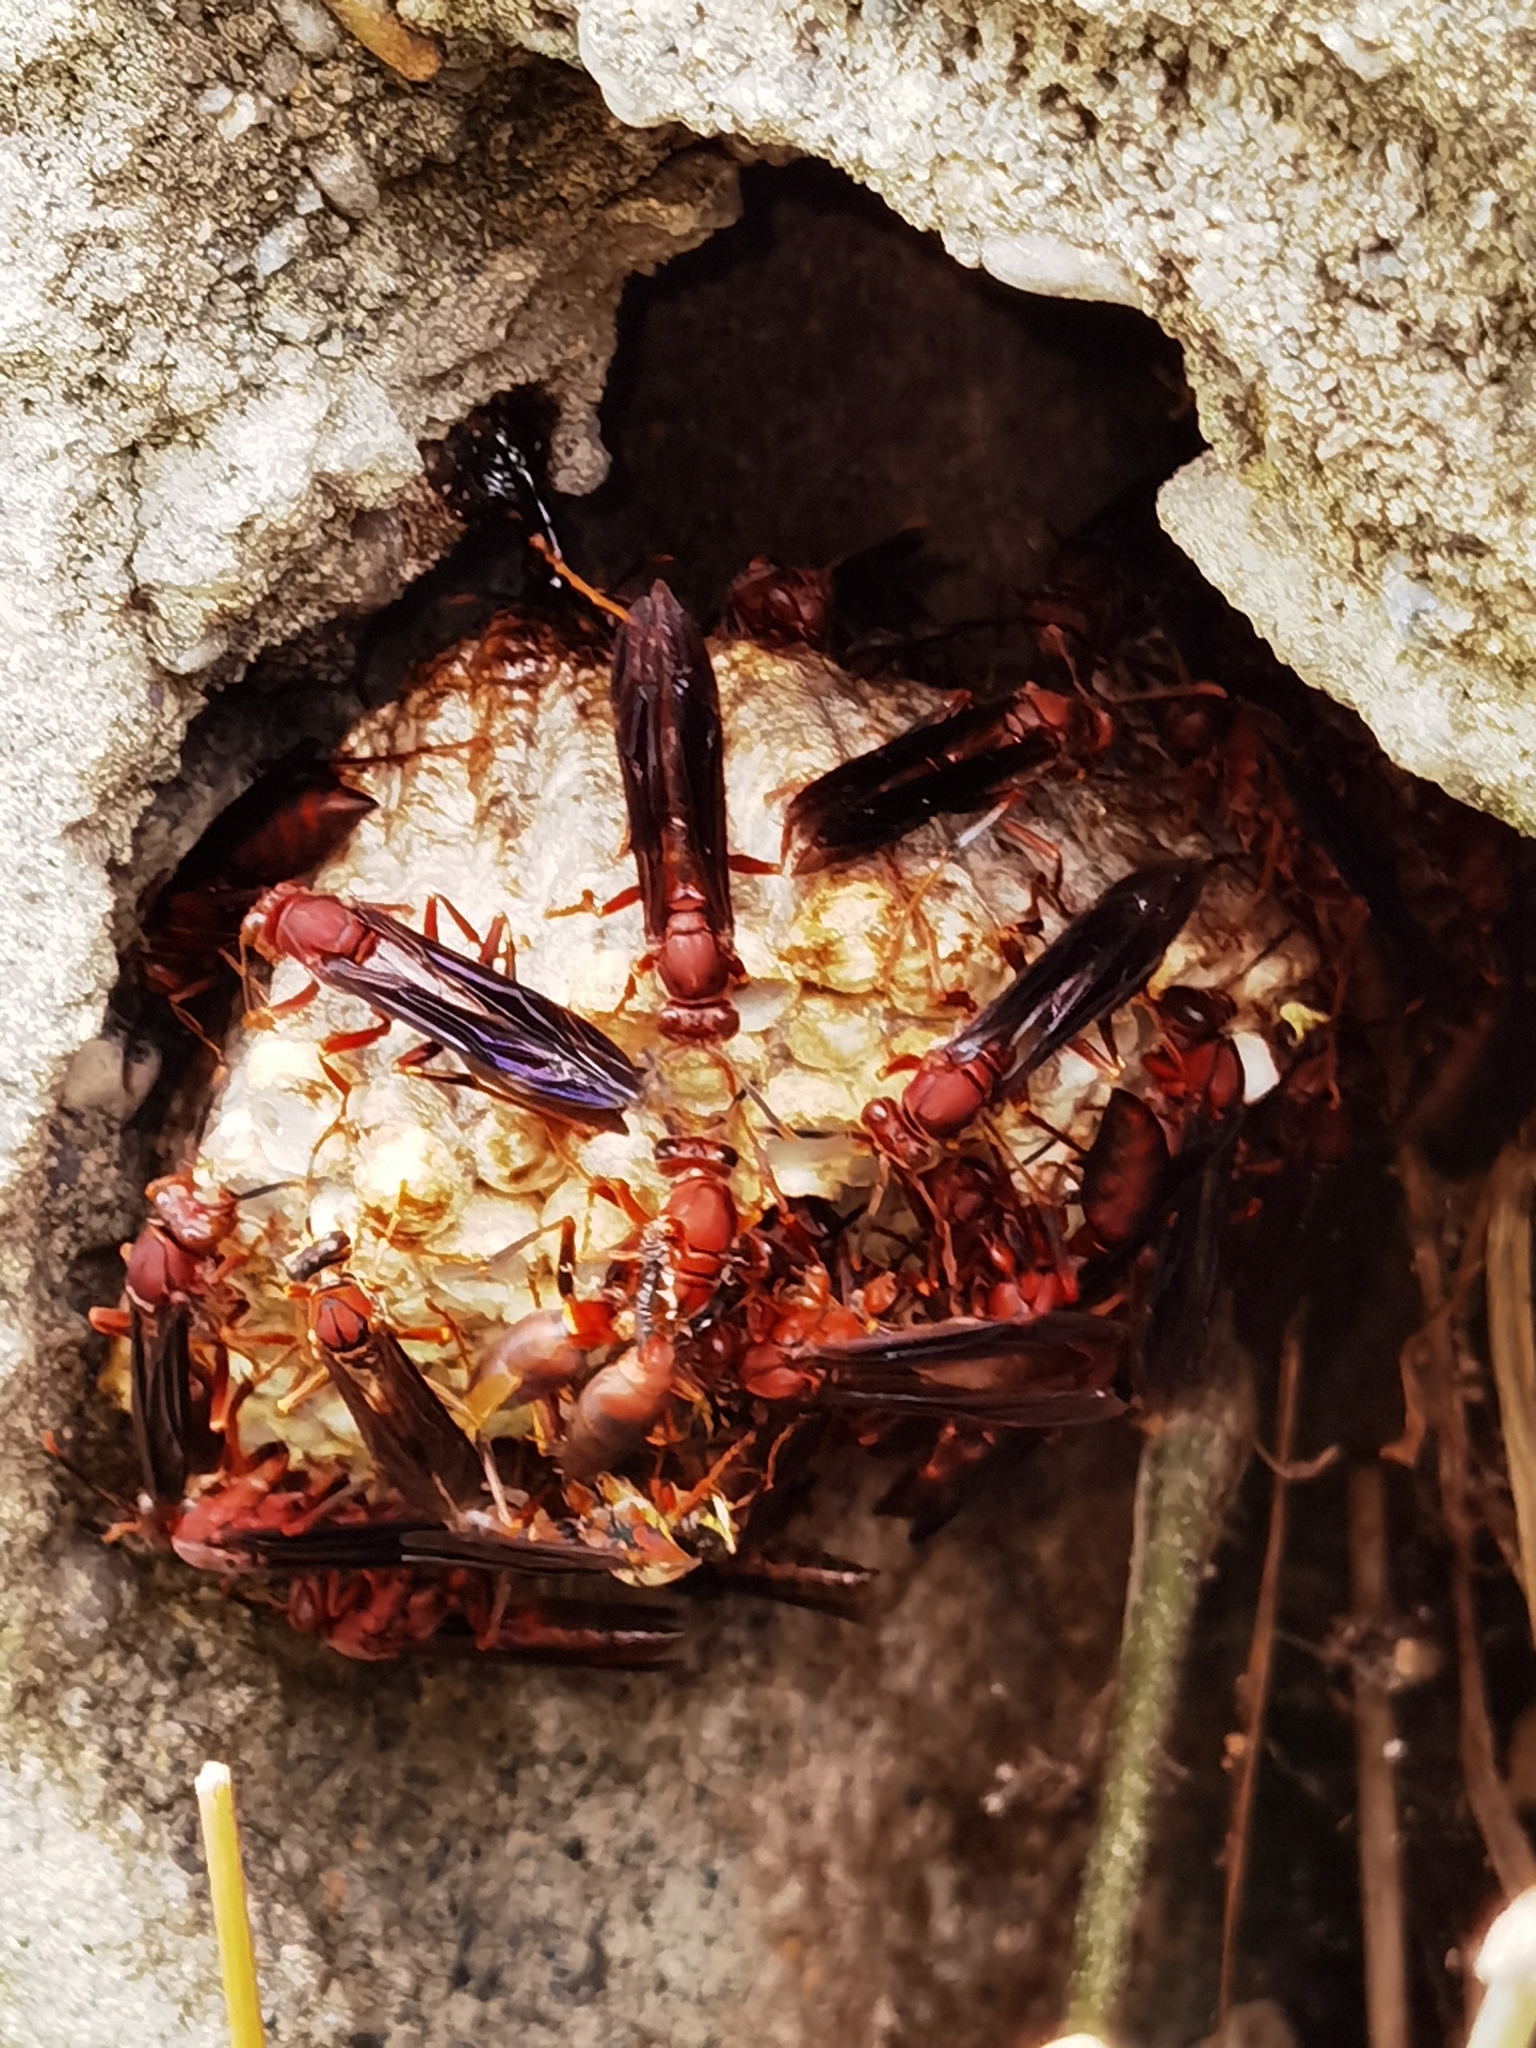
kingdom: Animalia
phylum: Arthropoda
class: Insecta
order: Hymenoptera
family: Eumenidae
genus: Polistes
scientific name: Polistes canadensis
